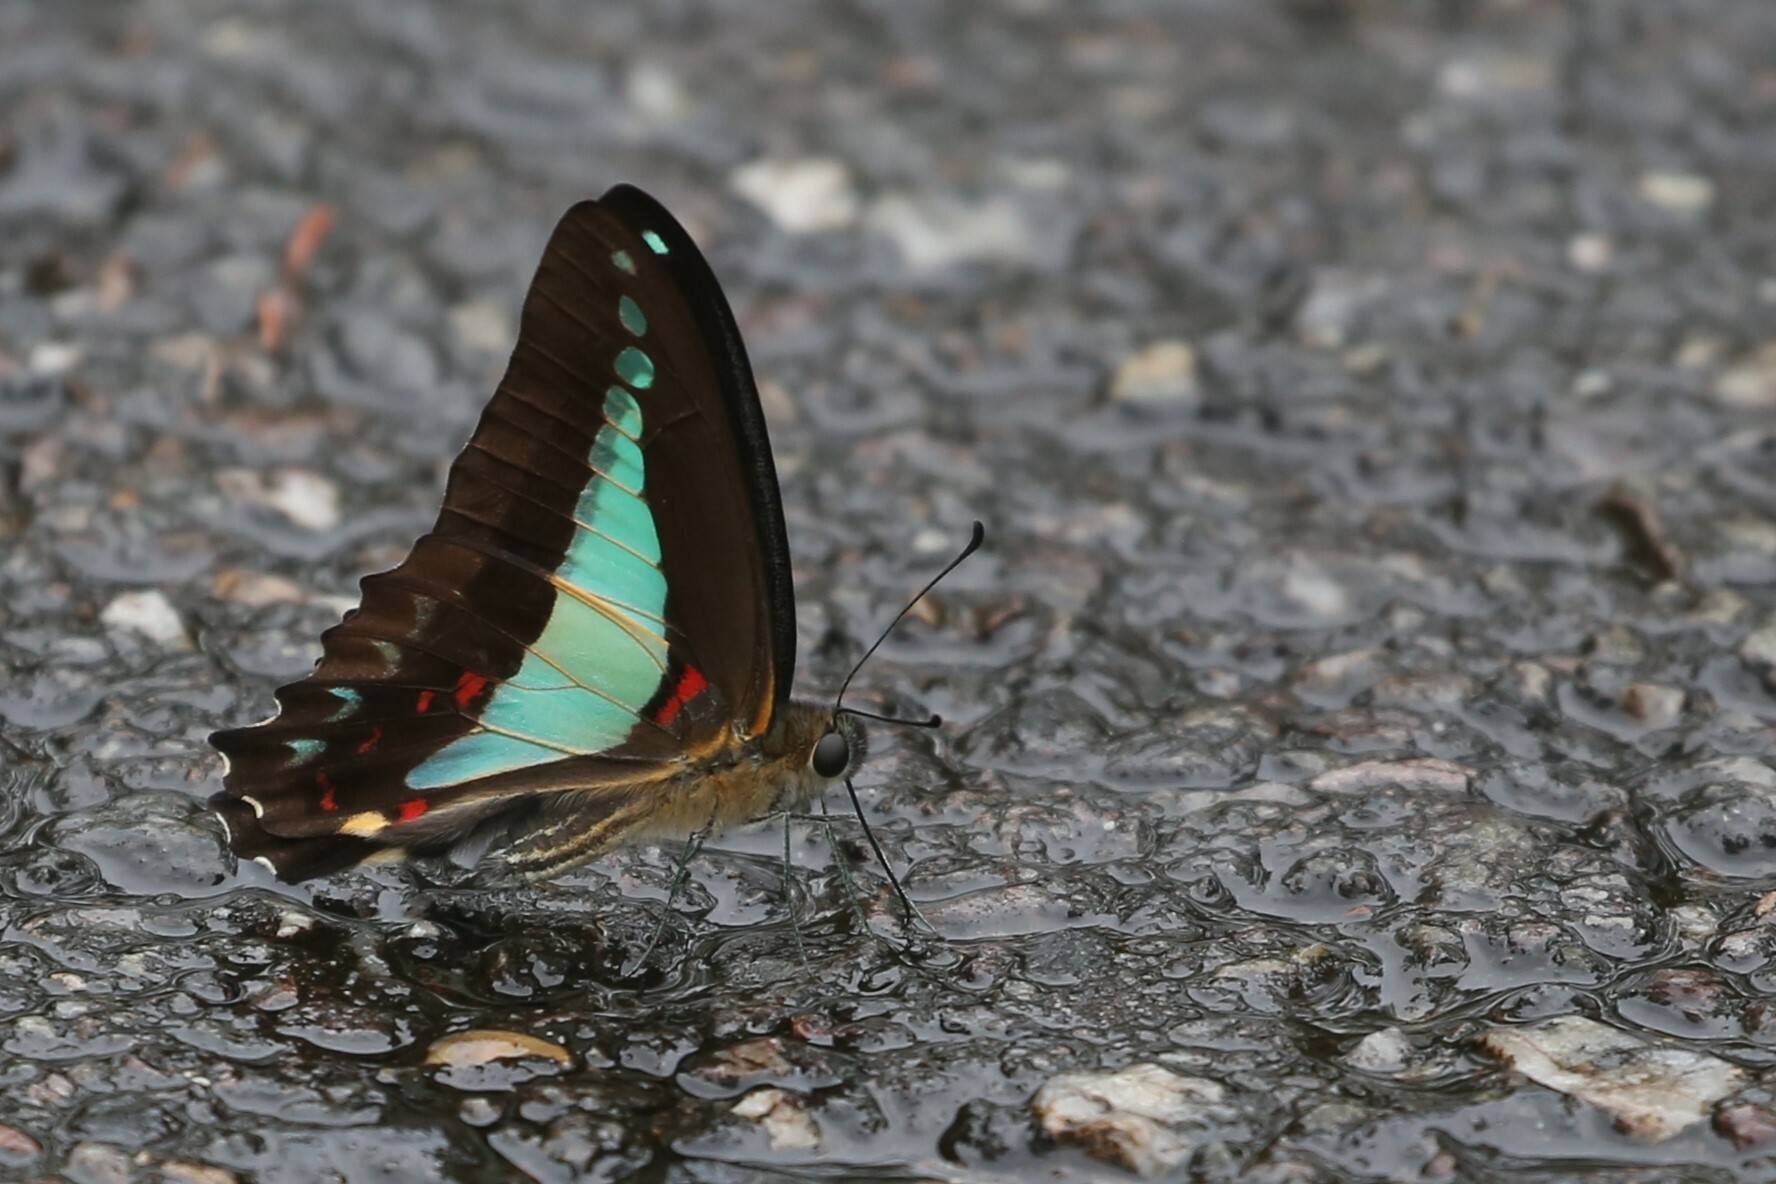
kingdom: Animalia
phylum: Arthropoda
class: Insecta
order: Lepidoptera
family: Papilionidae
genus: Graphium
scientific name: Graphium
